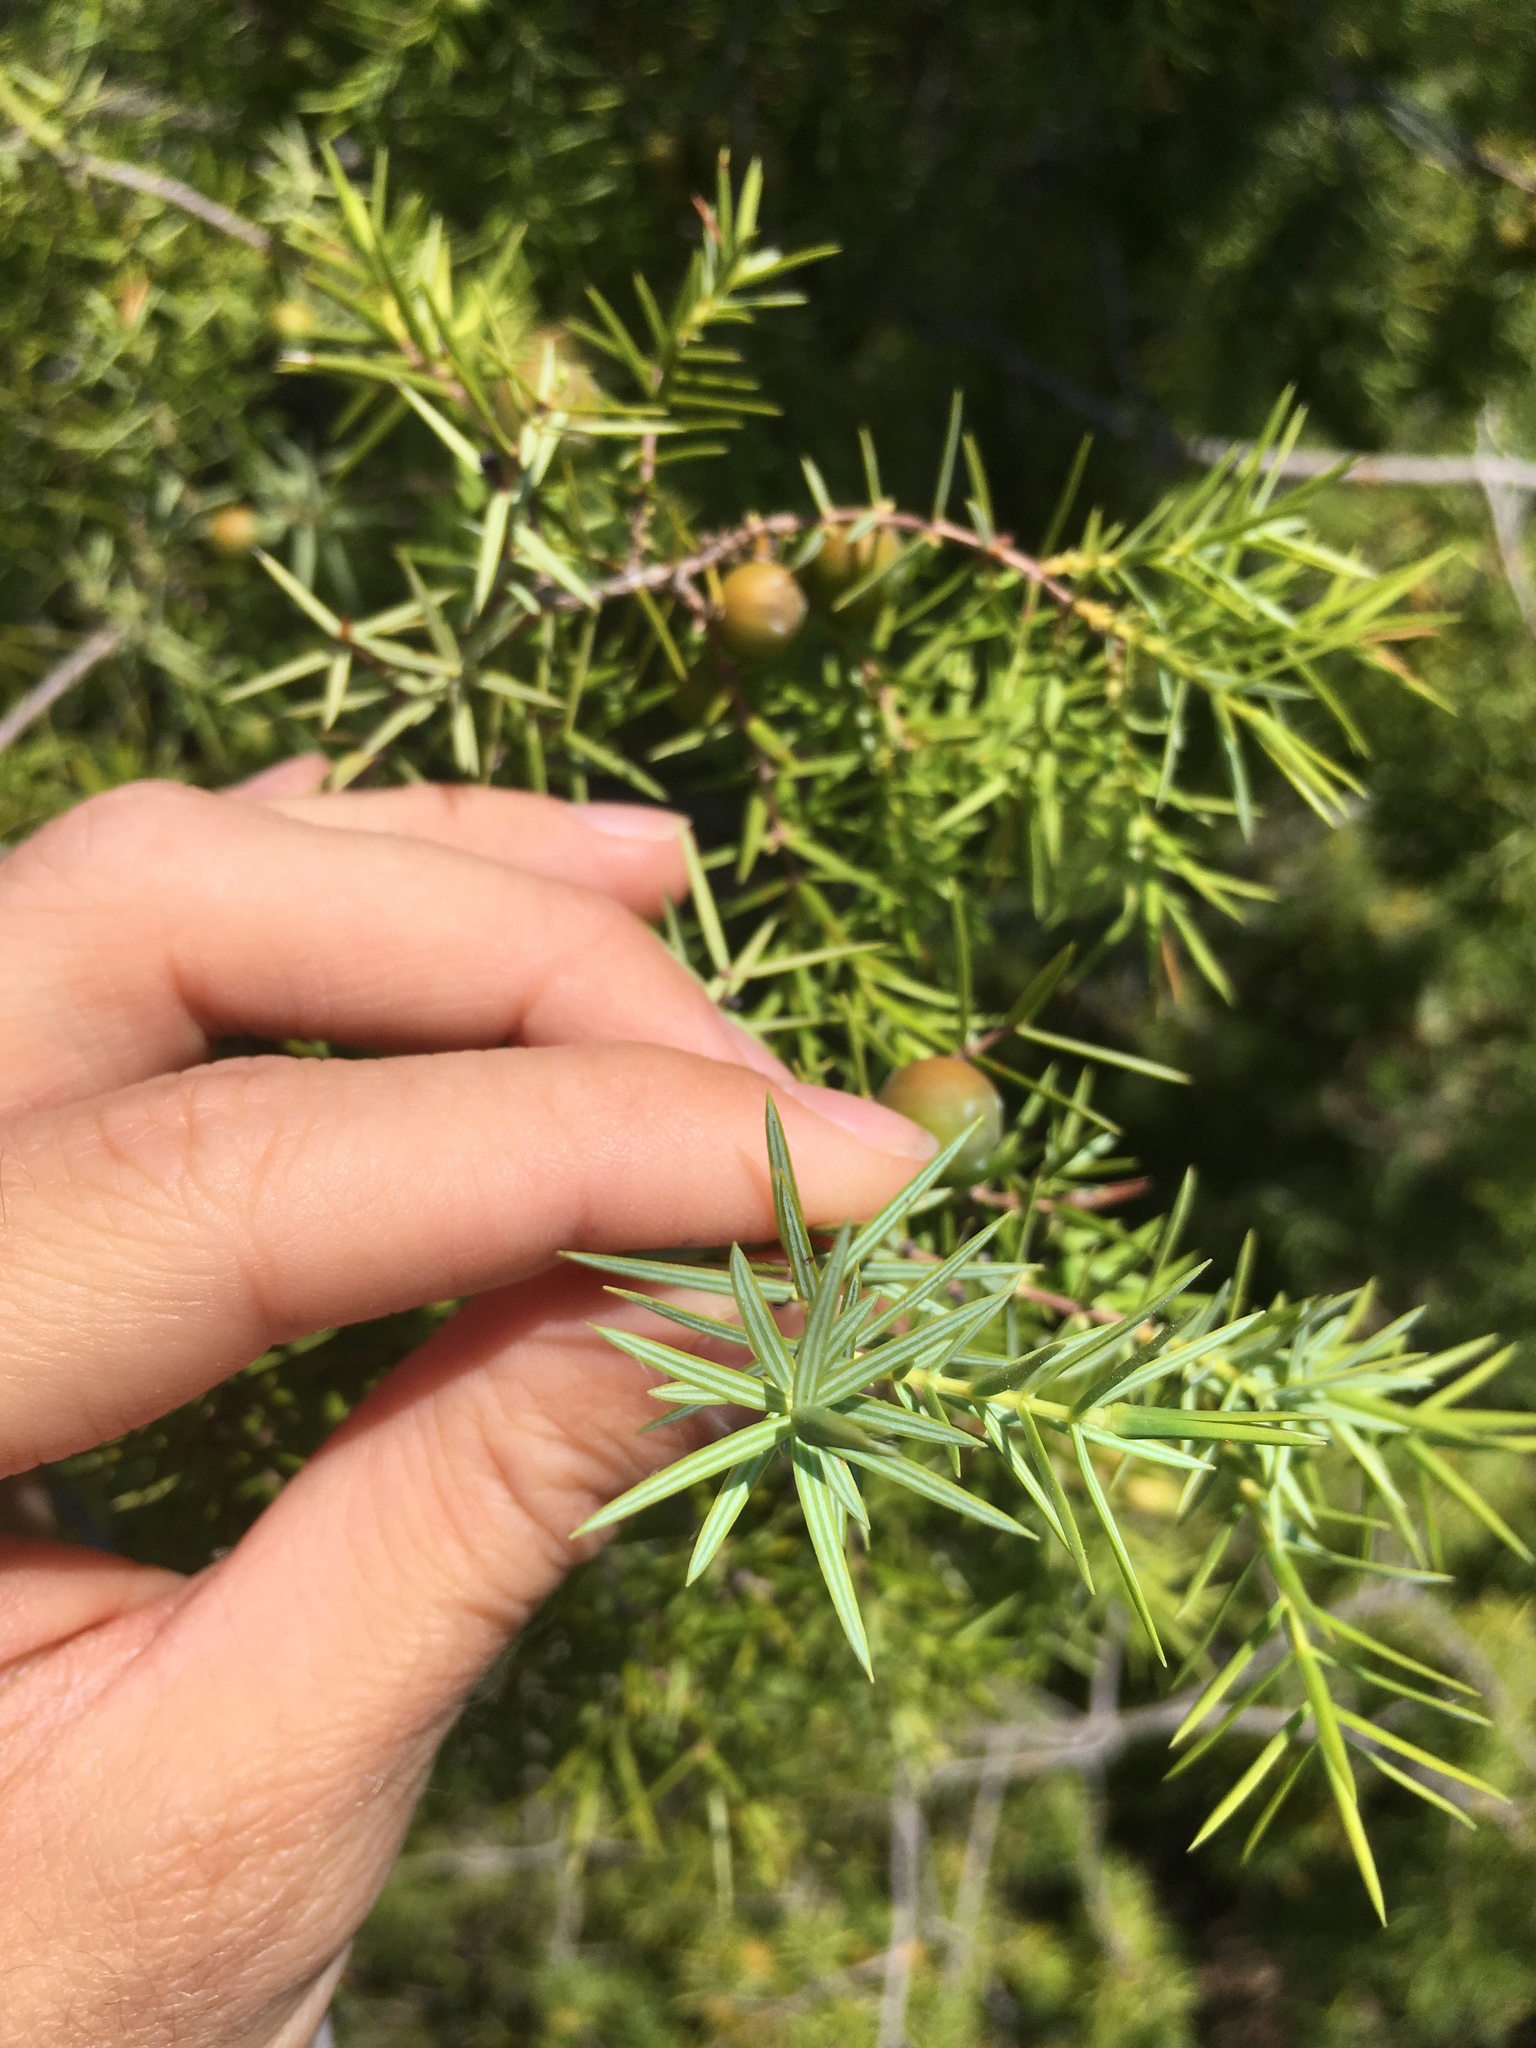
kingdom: Plantae
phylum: Tracheophyta
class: Pinopsida
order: Pinales
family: Cupressaceae
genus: Juniperus
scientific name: Juniperus oxycedrus
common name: Prickly juniper
